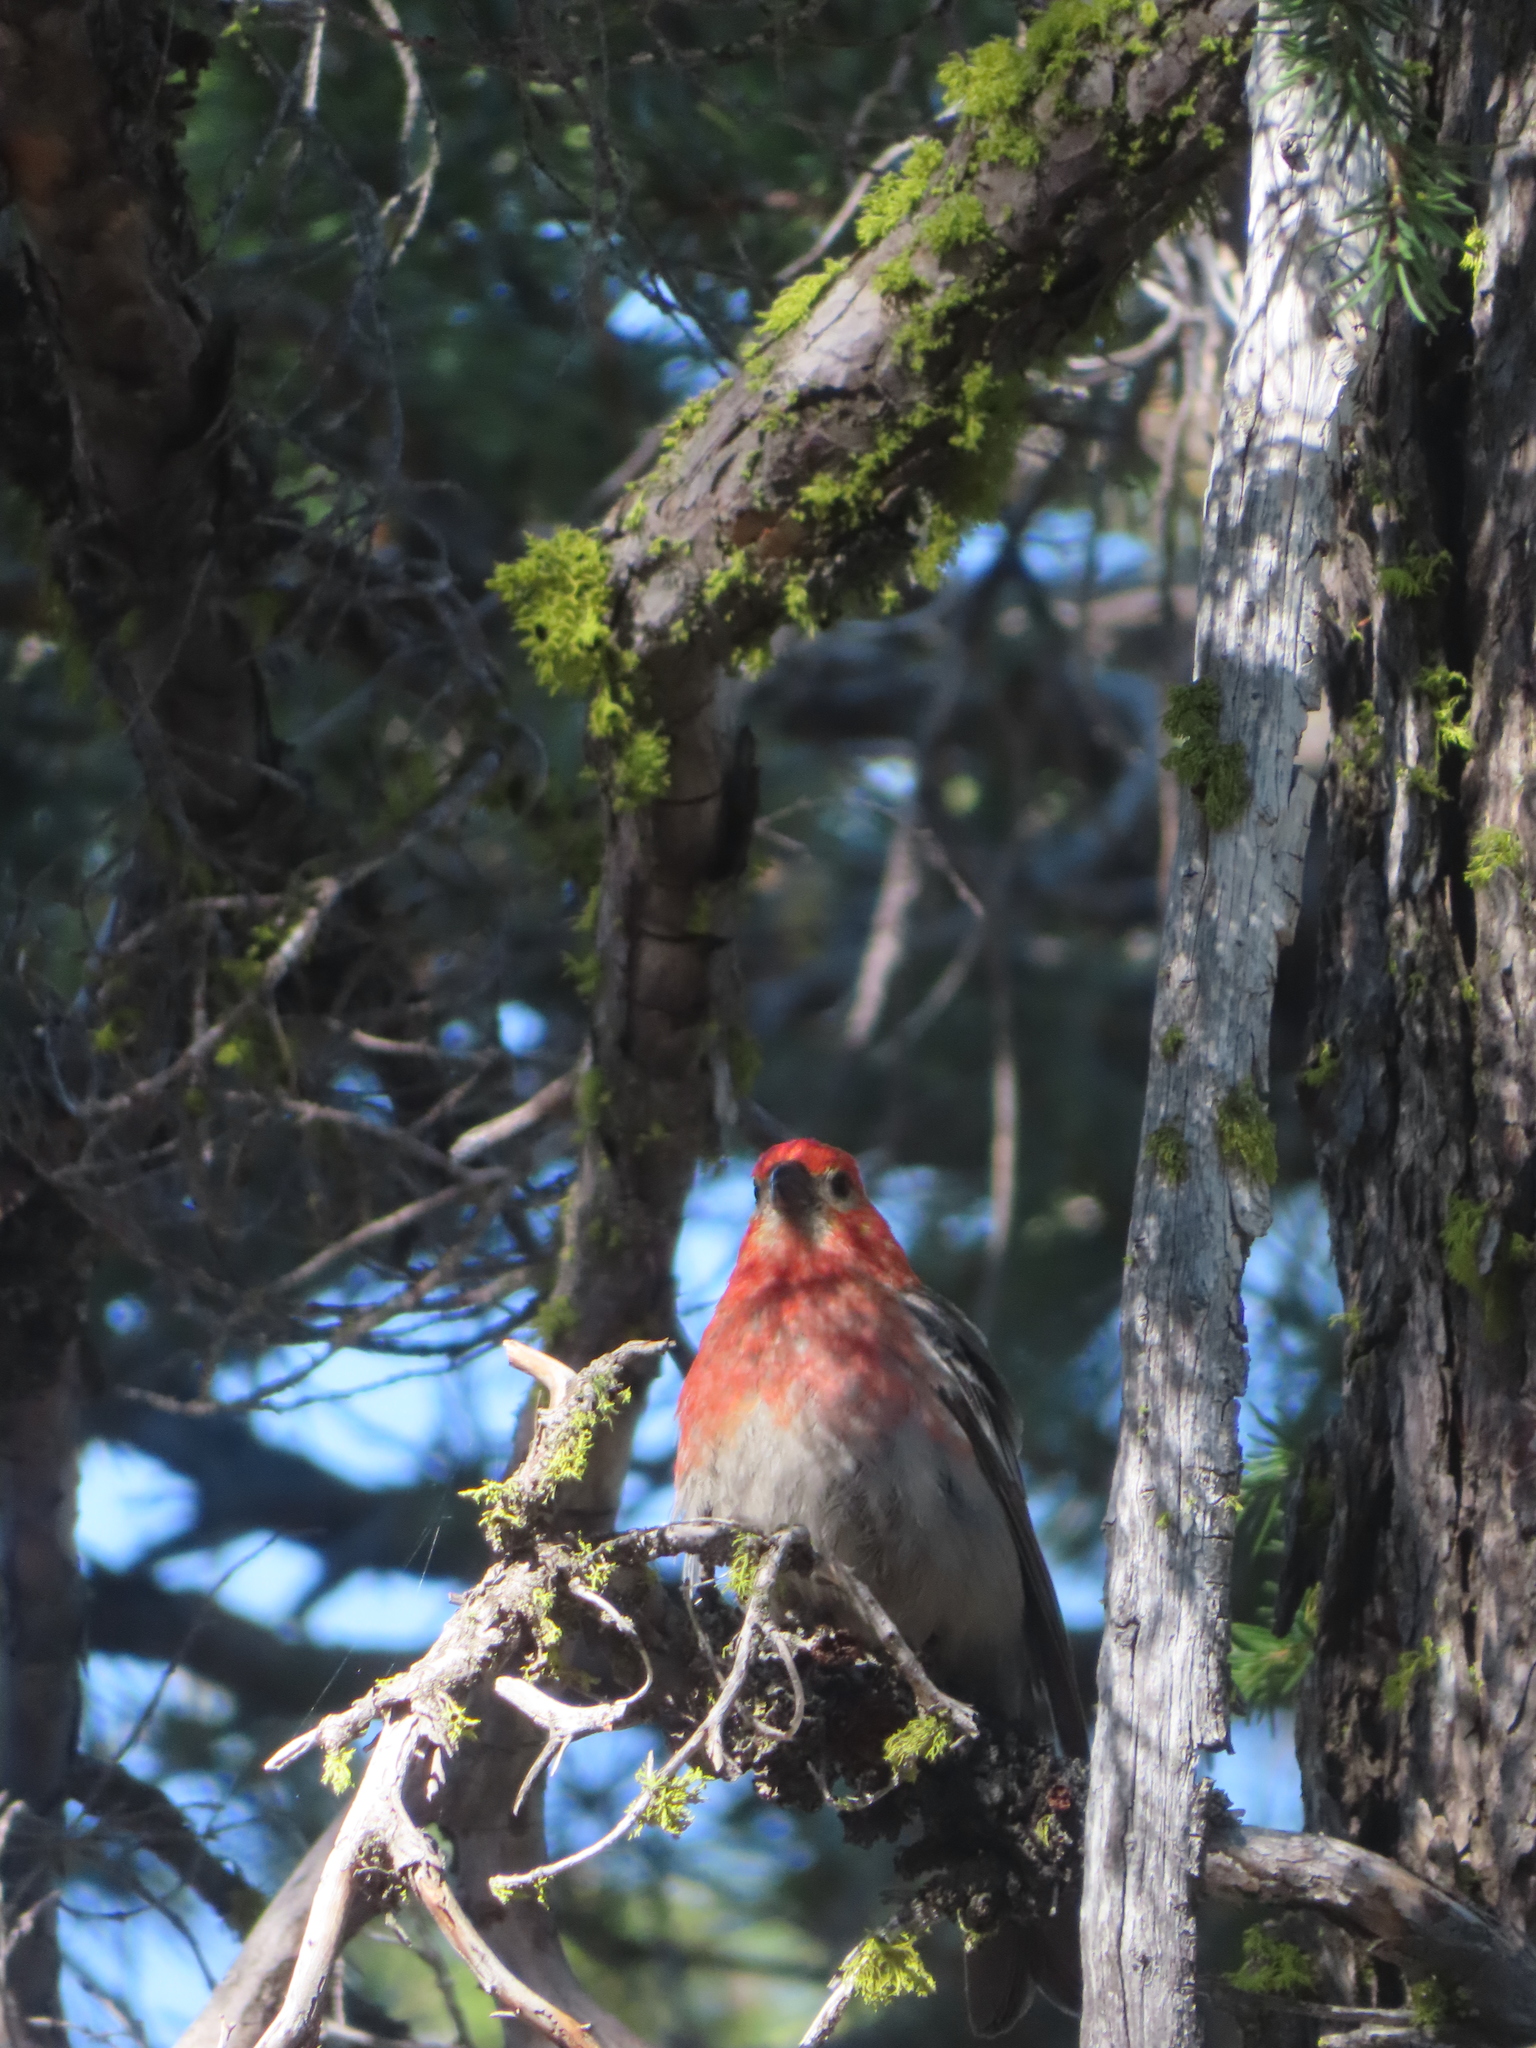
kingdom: Animalia
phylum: Chordata
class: Aves
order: Passeriformes
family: Fringillidae
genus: Pinicola
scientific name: Pinicola enucleator
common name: Pine grosbeak
